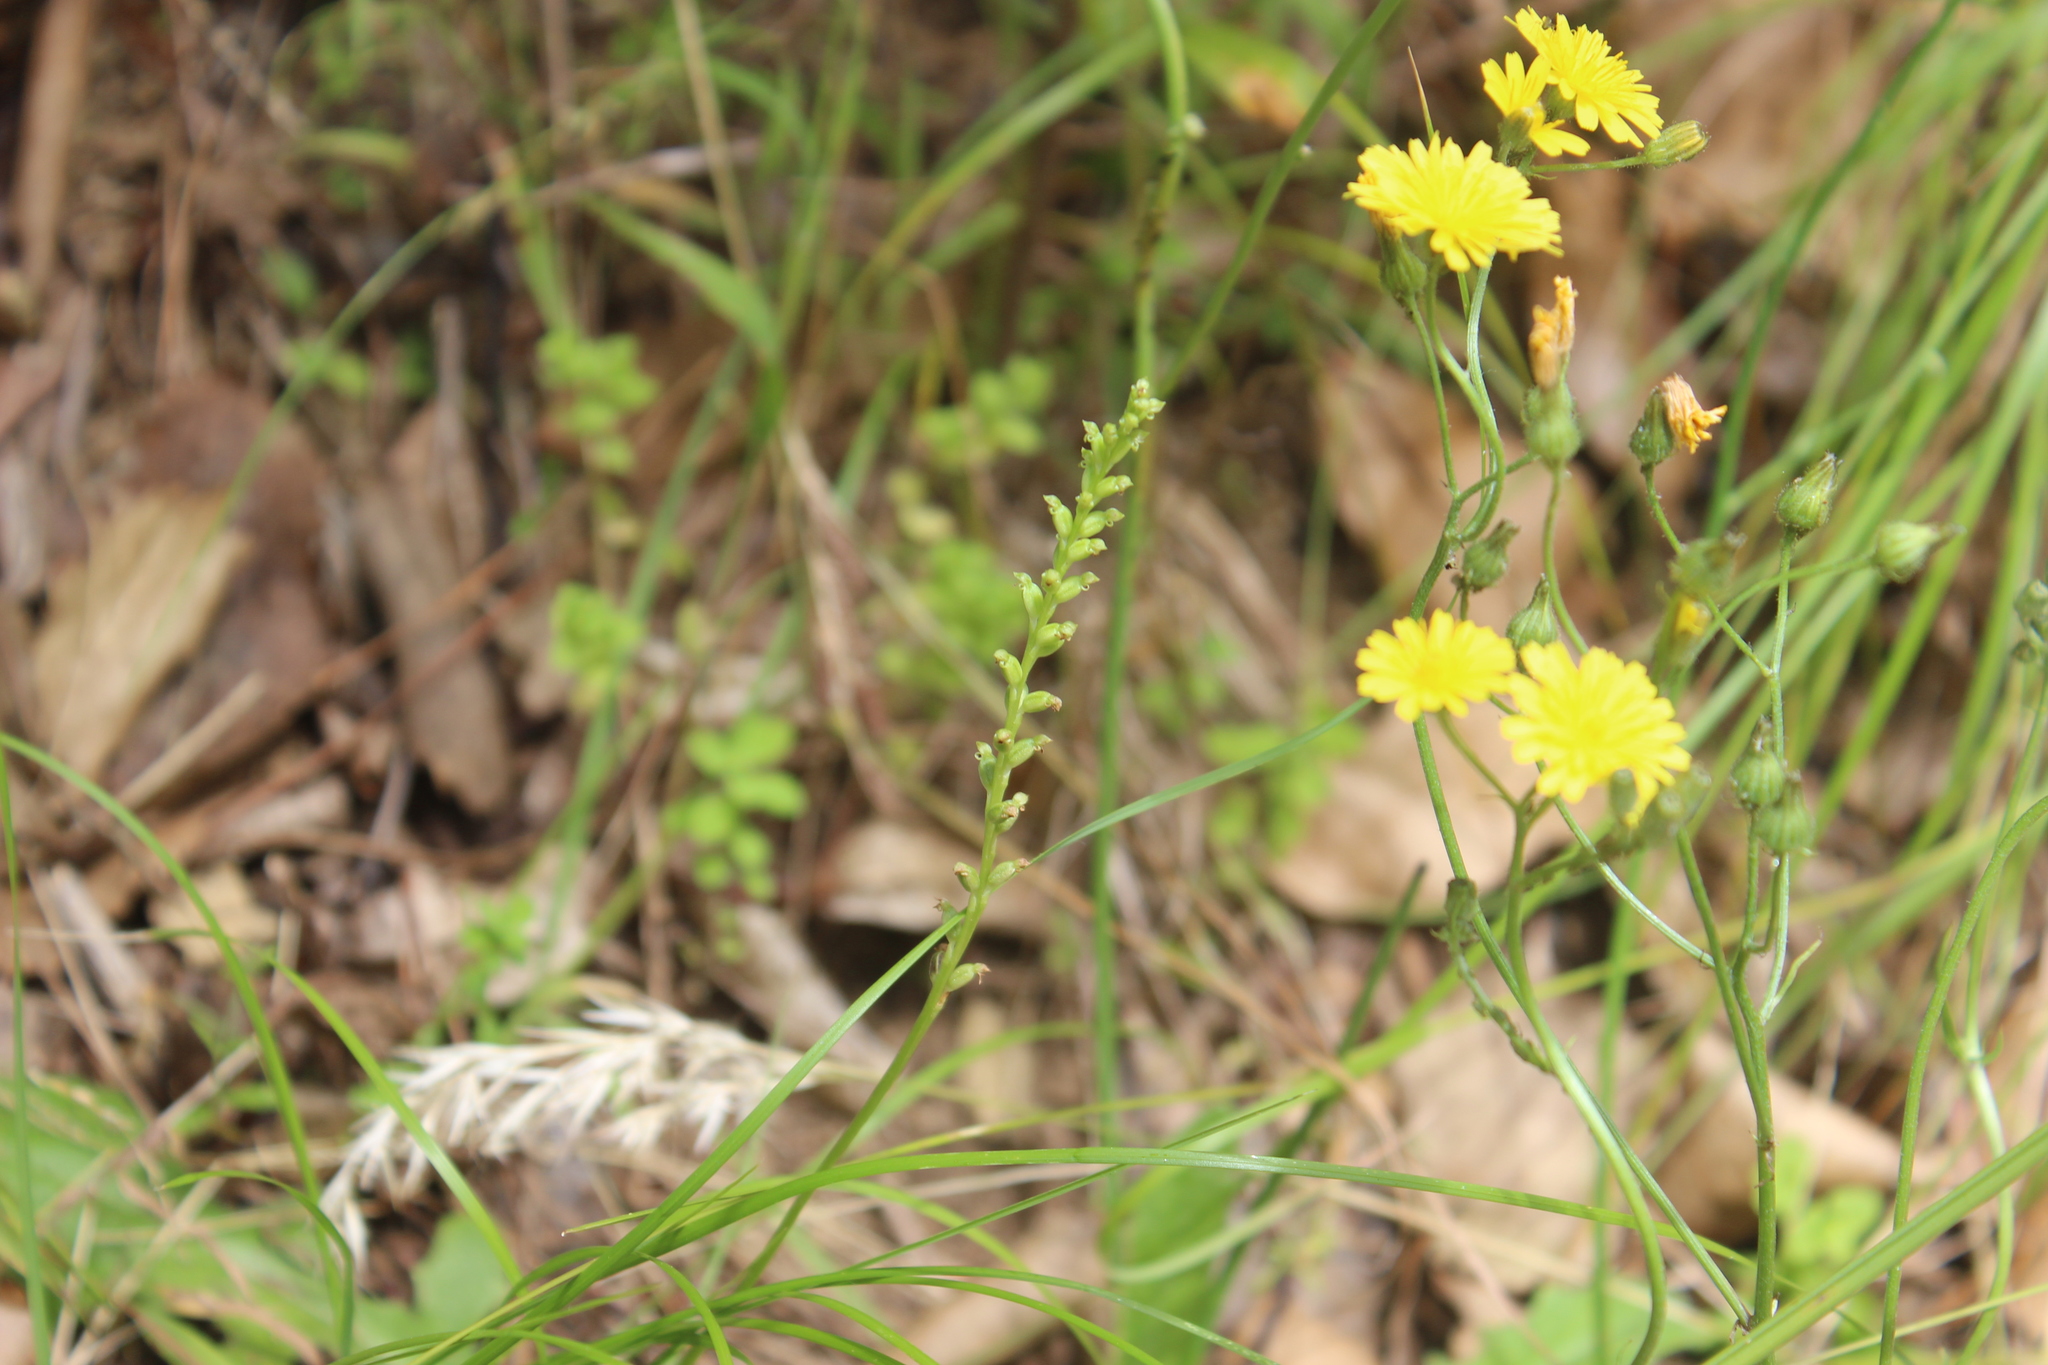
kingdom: Plantae
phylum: Tracheophyta
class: Liliopsida
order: Asparagales
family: Orchidaceae
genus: Microtis
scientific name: Microtis unifolia
